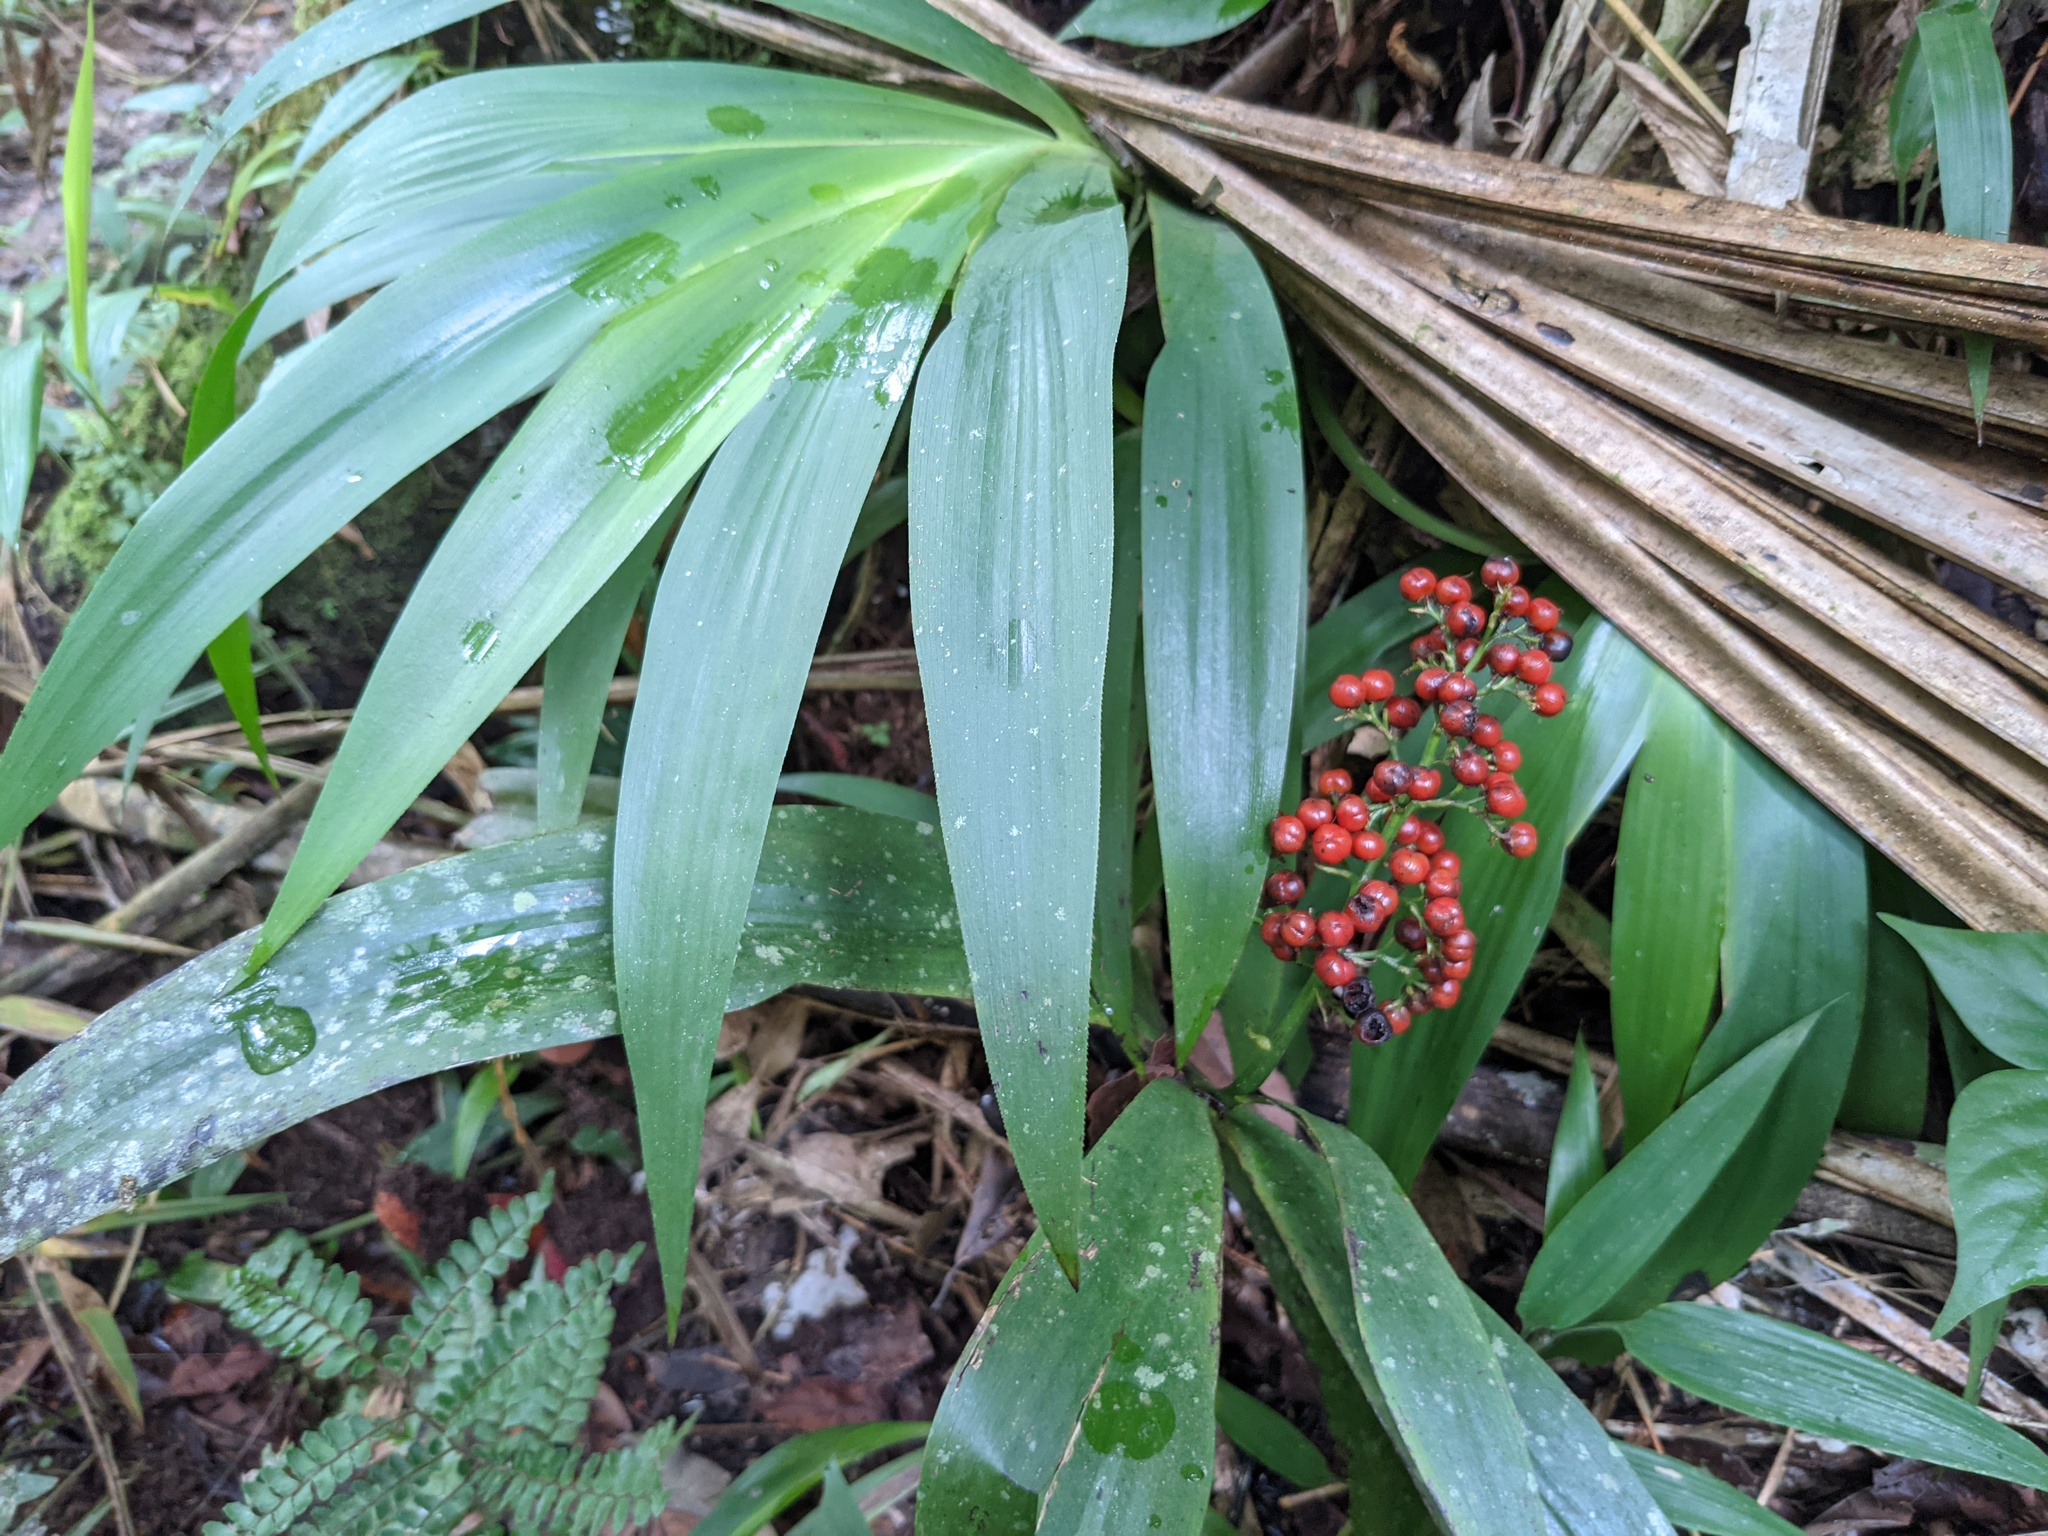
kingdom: Plantae
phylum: Tracheophyta
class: Liliopsida
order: Commelinales
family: Haemodoraceae
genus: Xiphidium
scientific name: Xiphidium caeruleum
